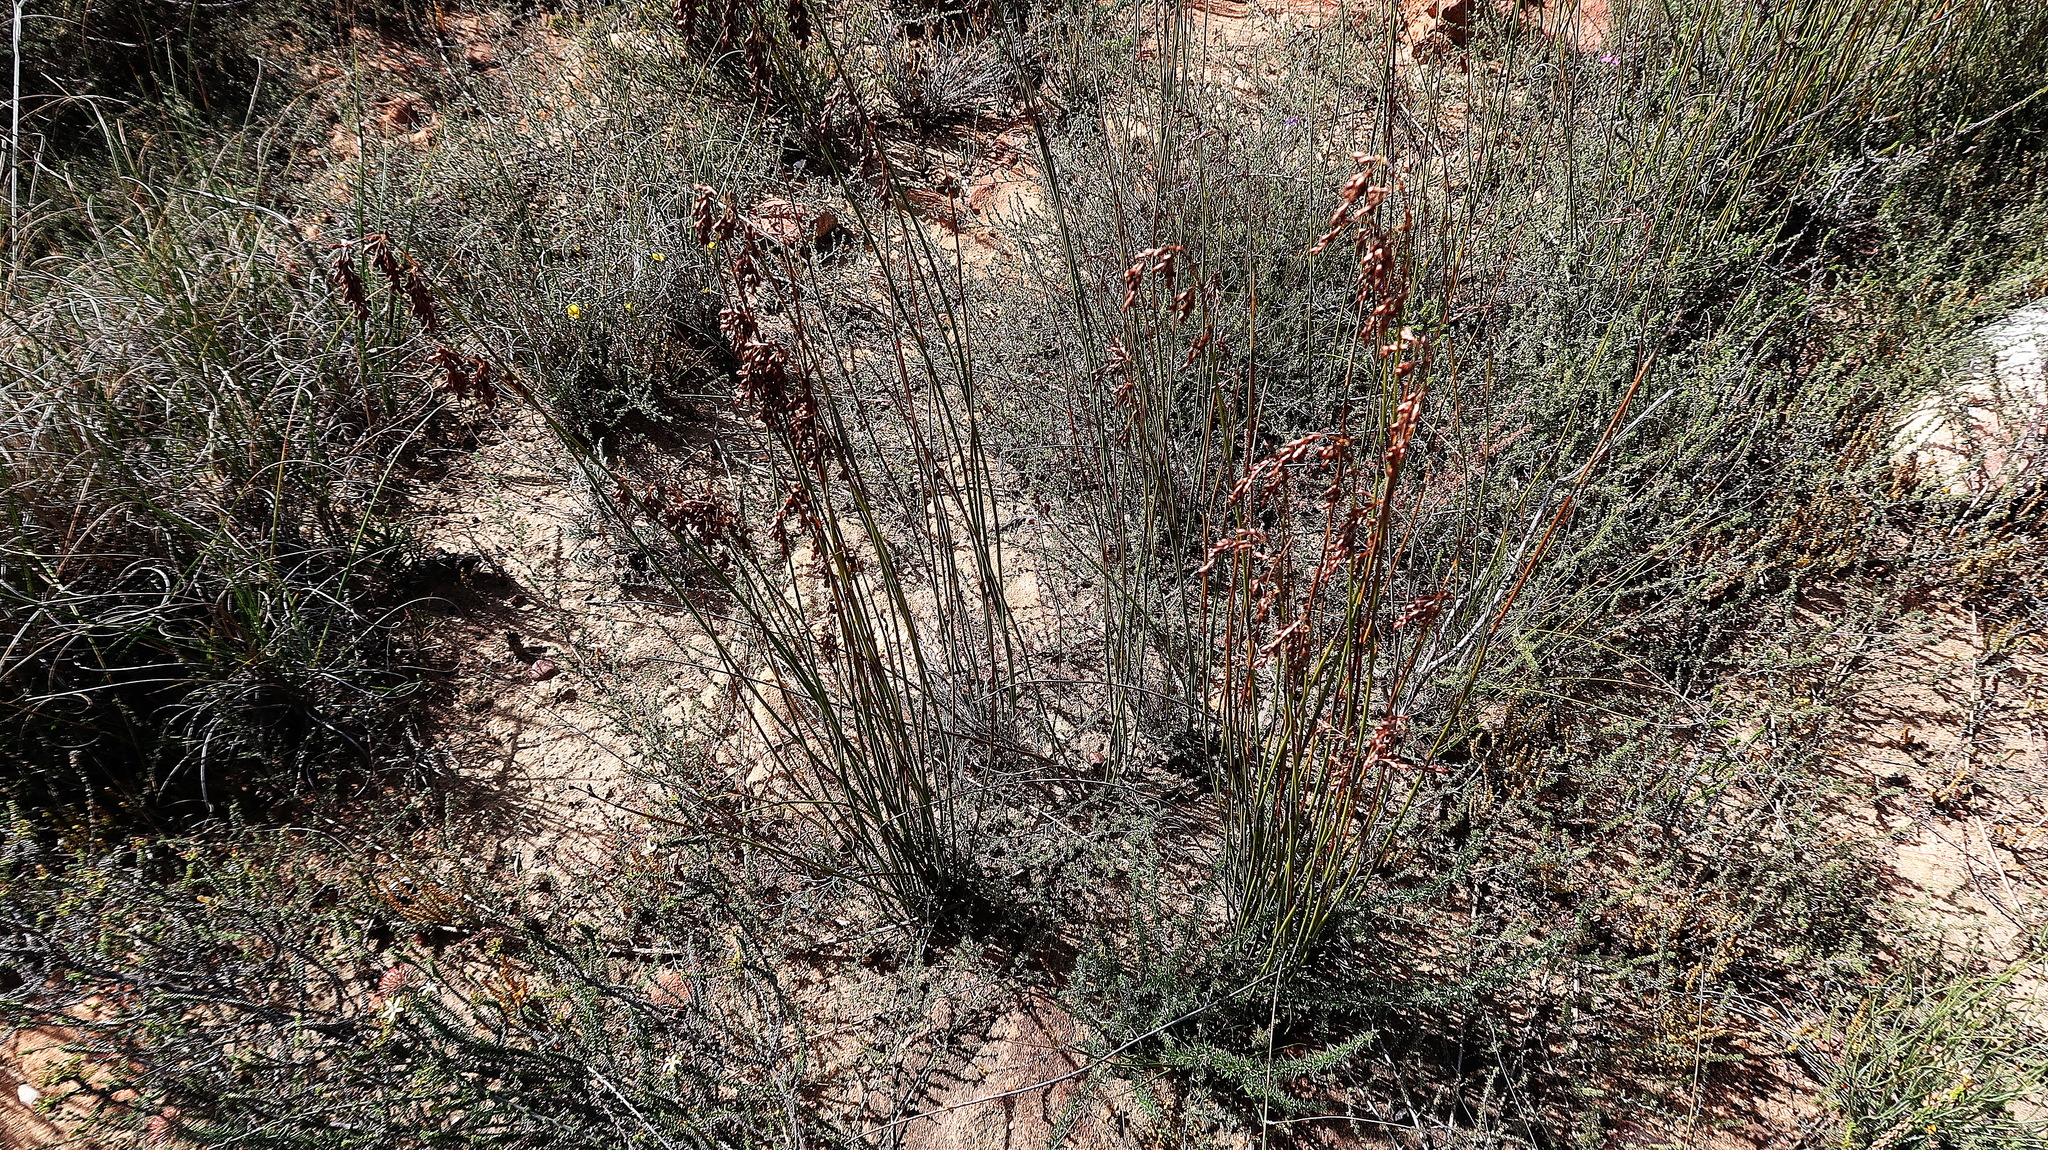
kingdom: Plantae
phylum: Tracheophyta
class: Liliopsida
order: Poales
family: Restionaceae
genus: Rhodocoma
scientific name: Rhodocoma arida
